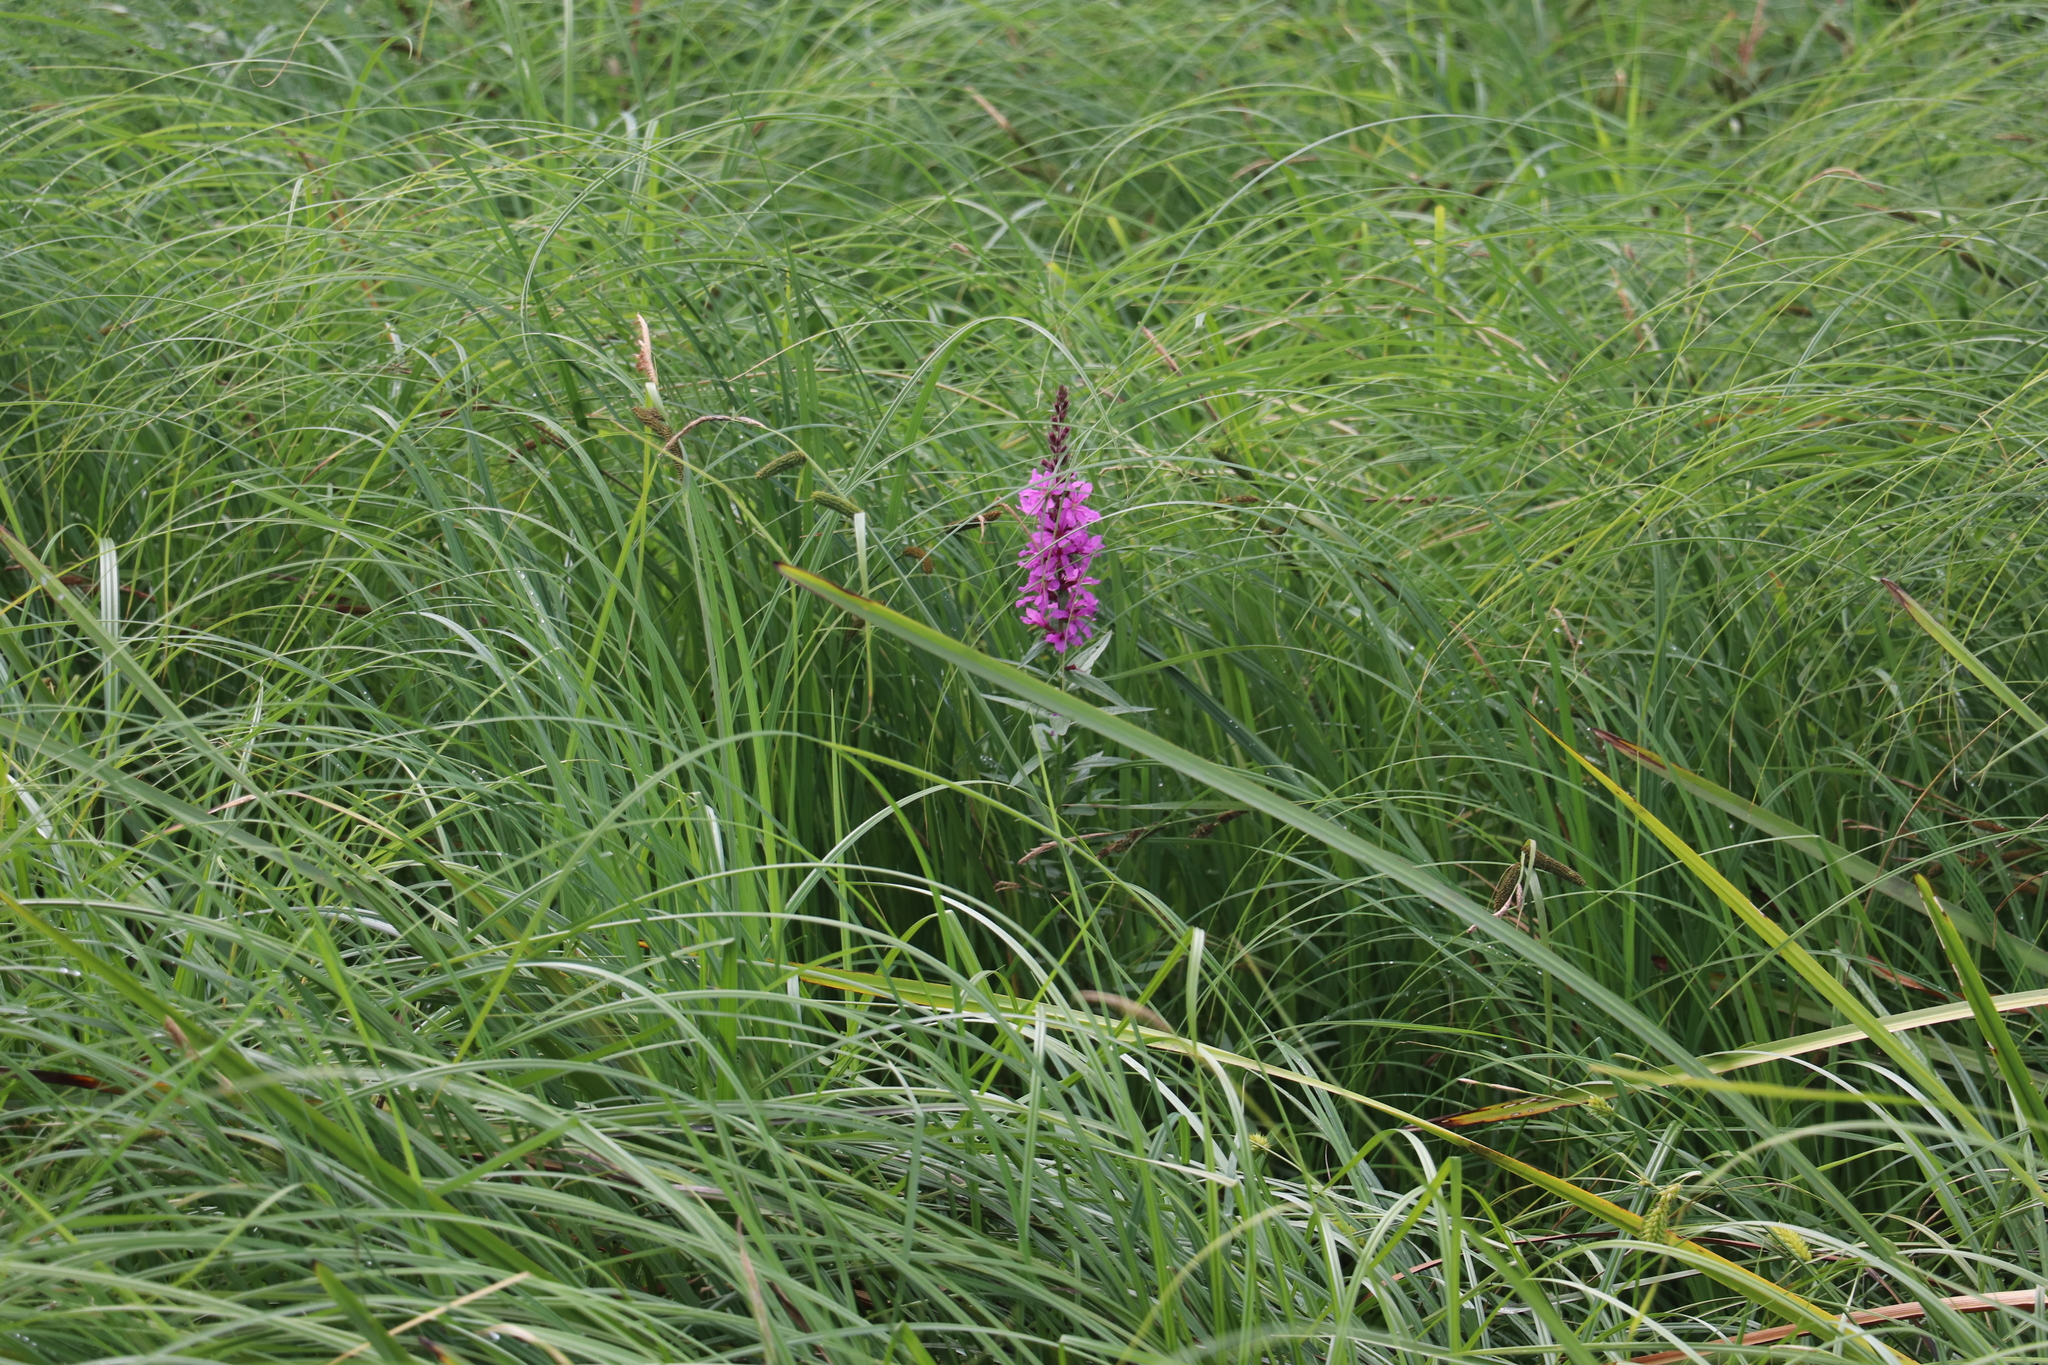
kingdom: Plantae
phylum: Tracheophyta
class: Magnoliopsida
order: Myrtales
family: Lythraceae
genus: Lythrum
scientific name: Lythrum salicaria
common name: Purple loosestrife
